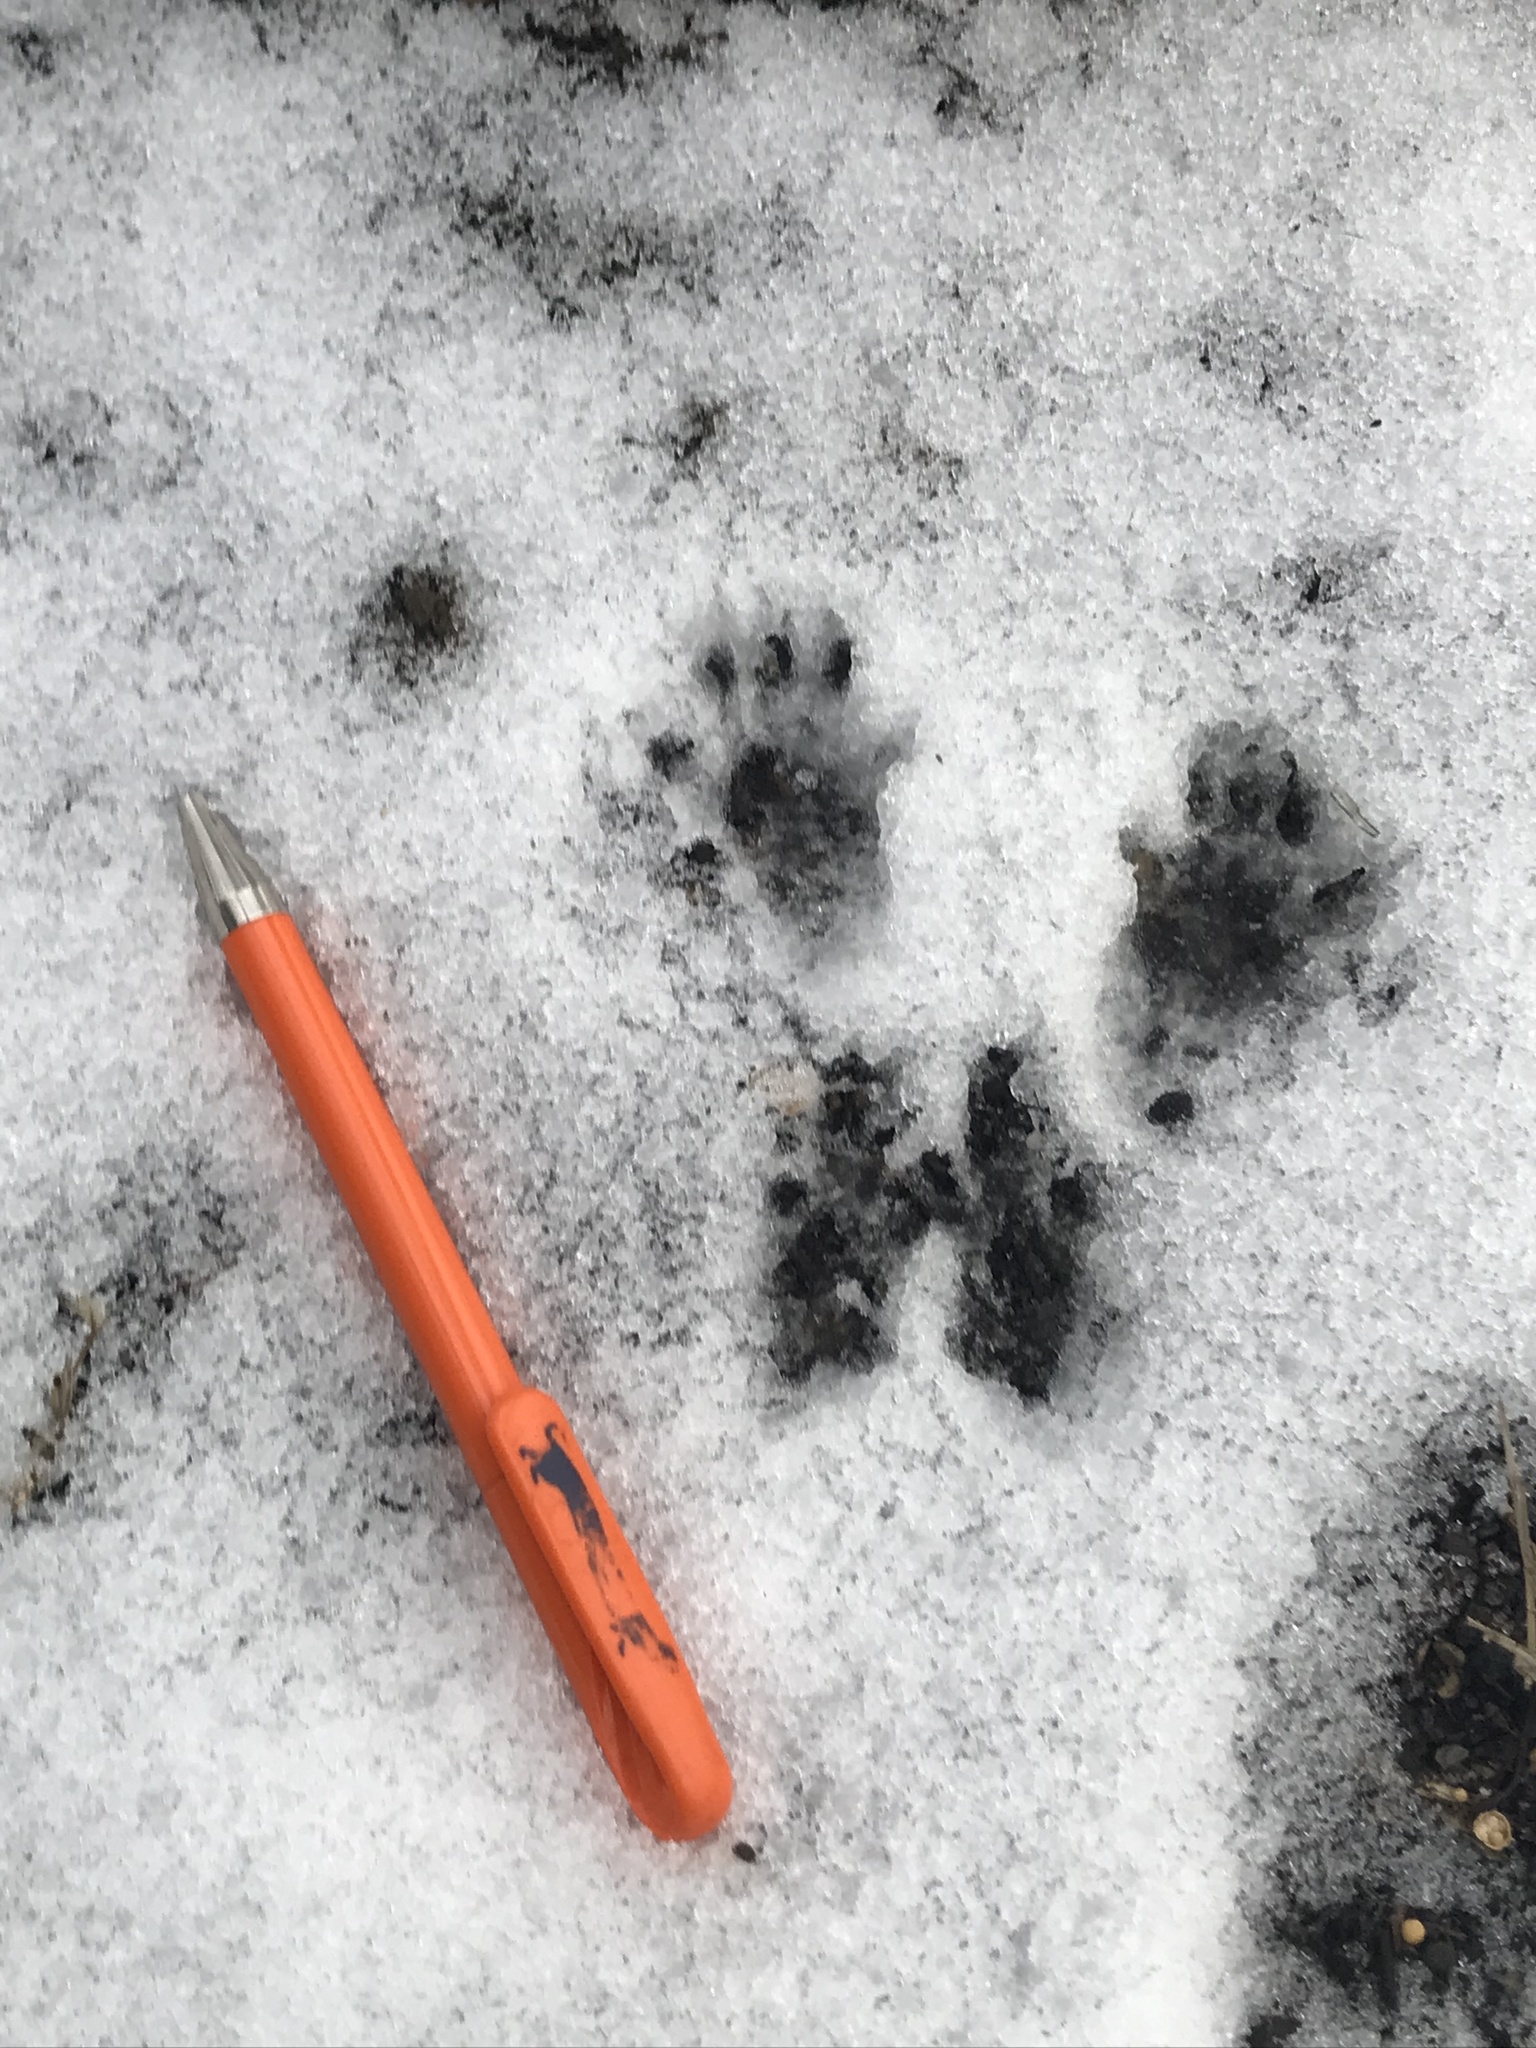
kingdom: Animalia
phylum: Chordata
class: Mammalia
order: Rodentia
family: Sciuridae
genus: Sciurus
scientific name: Sciurus carolinensis
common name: Eastern gray squirrel
